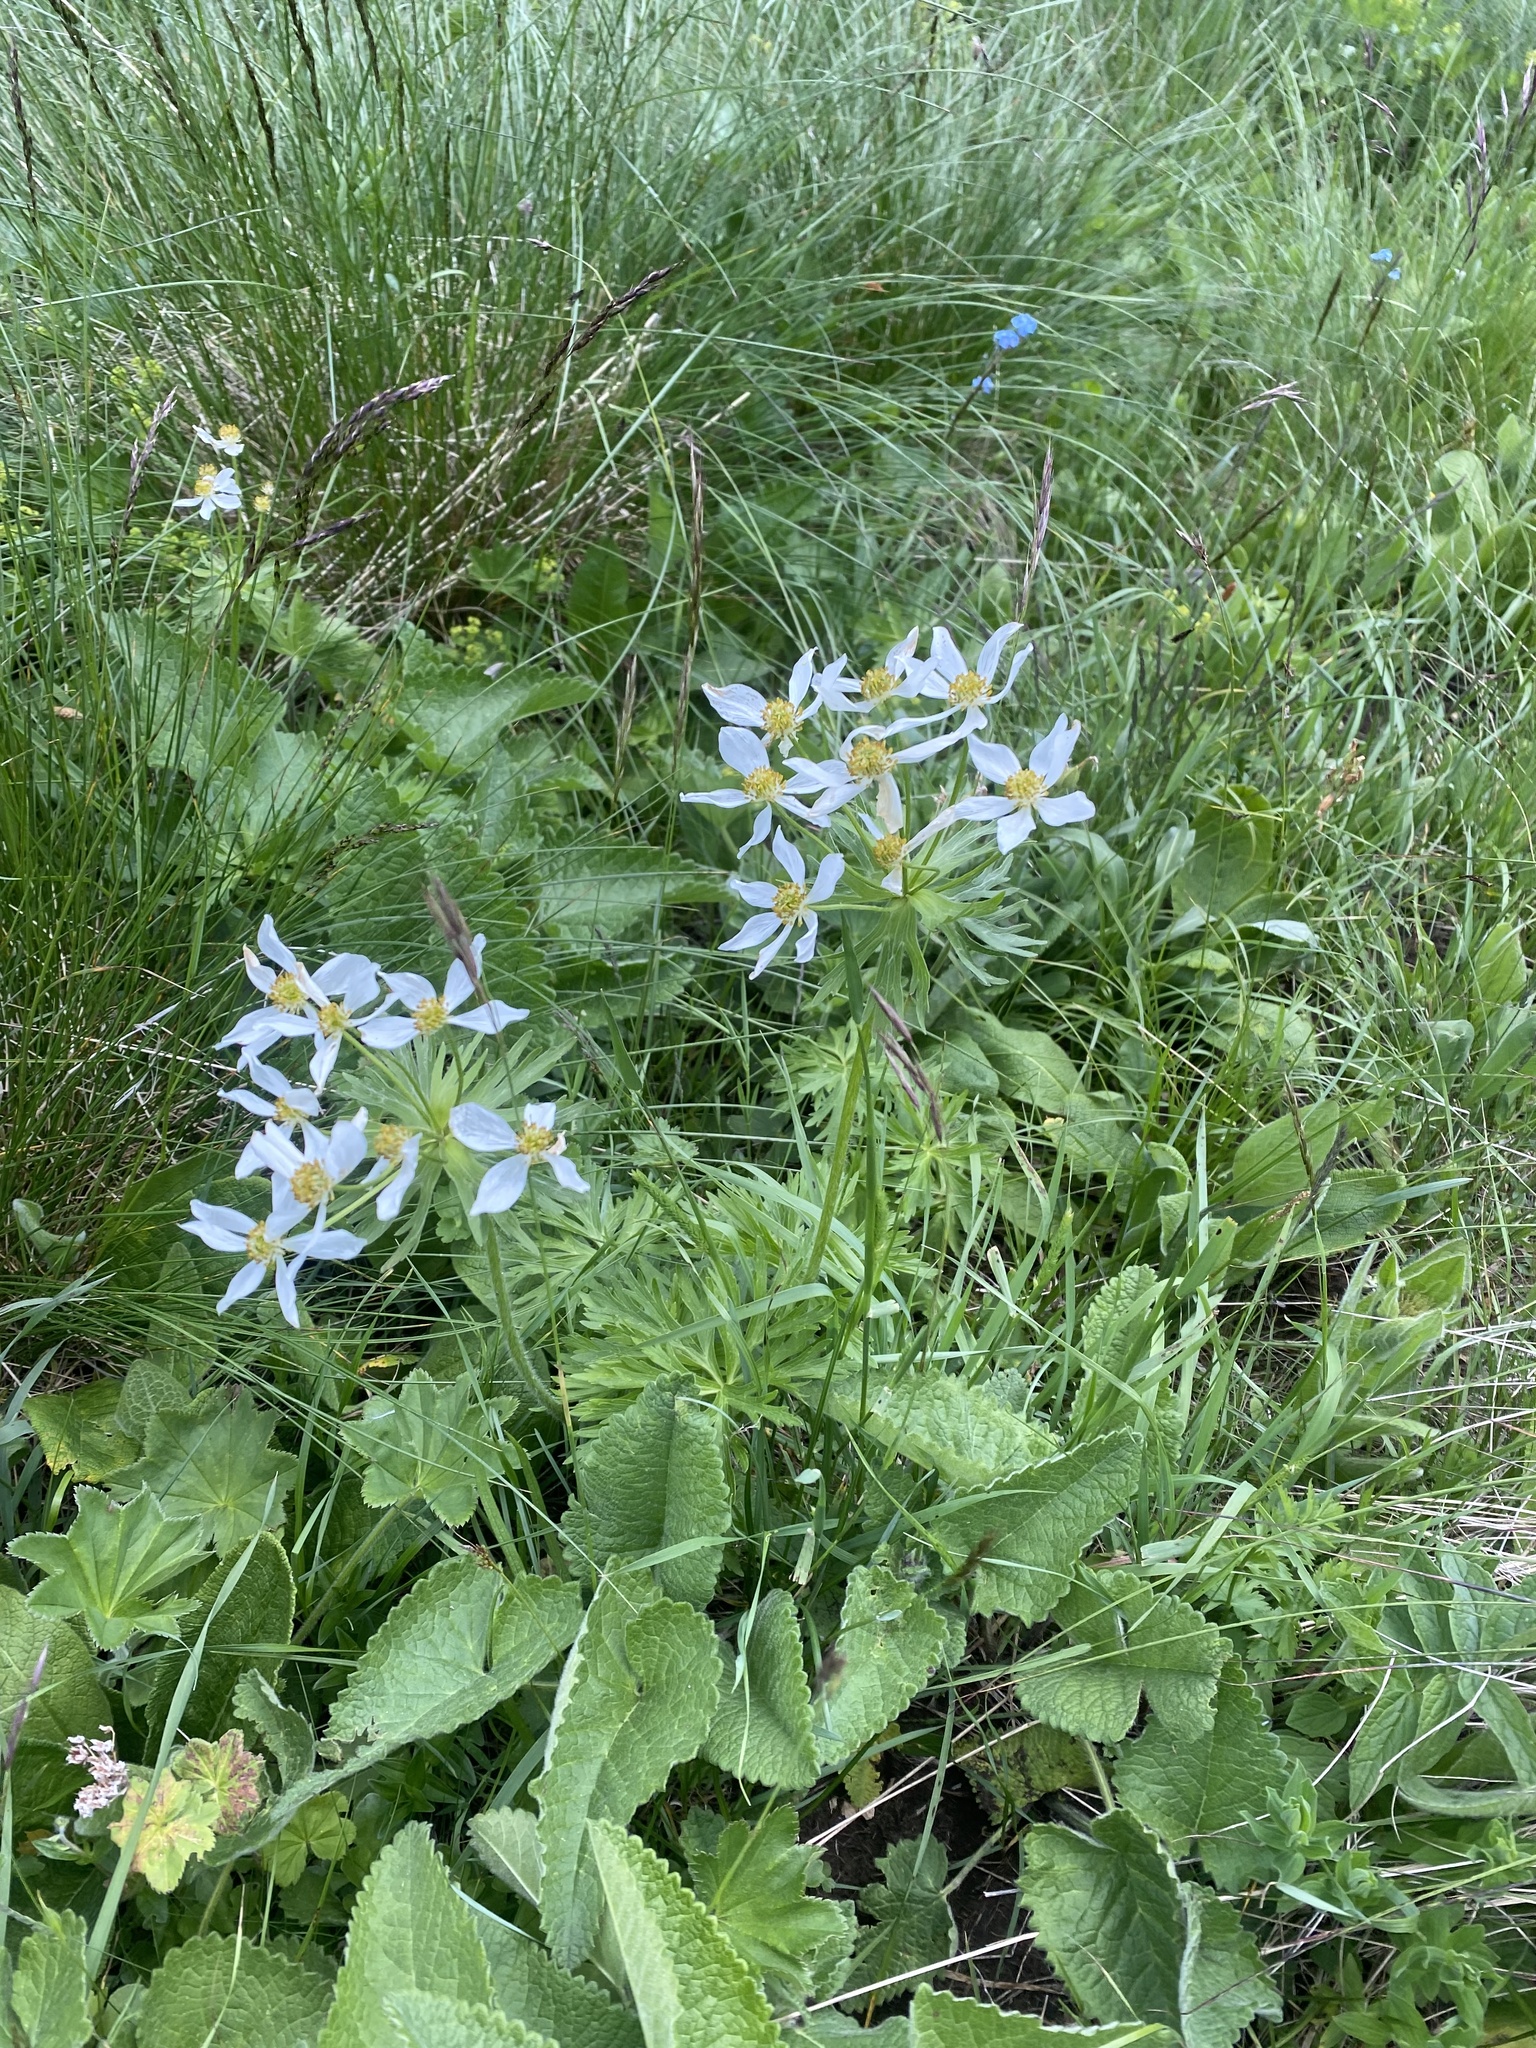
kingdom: Plantae
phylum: Tracheophyta
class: Magnoliopsida
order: Ranunculales
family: Ranunculaceae
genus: Anemonastrum
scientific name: Anemonastrum narcissiflorum
